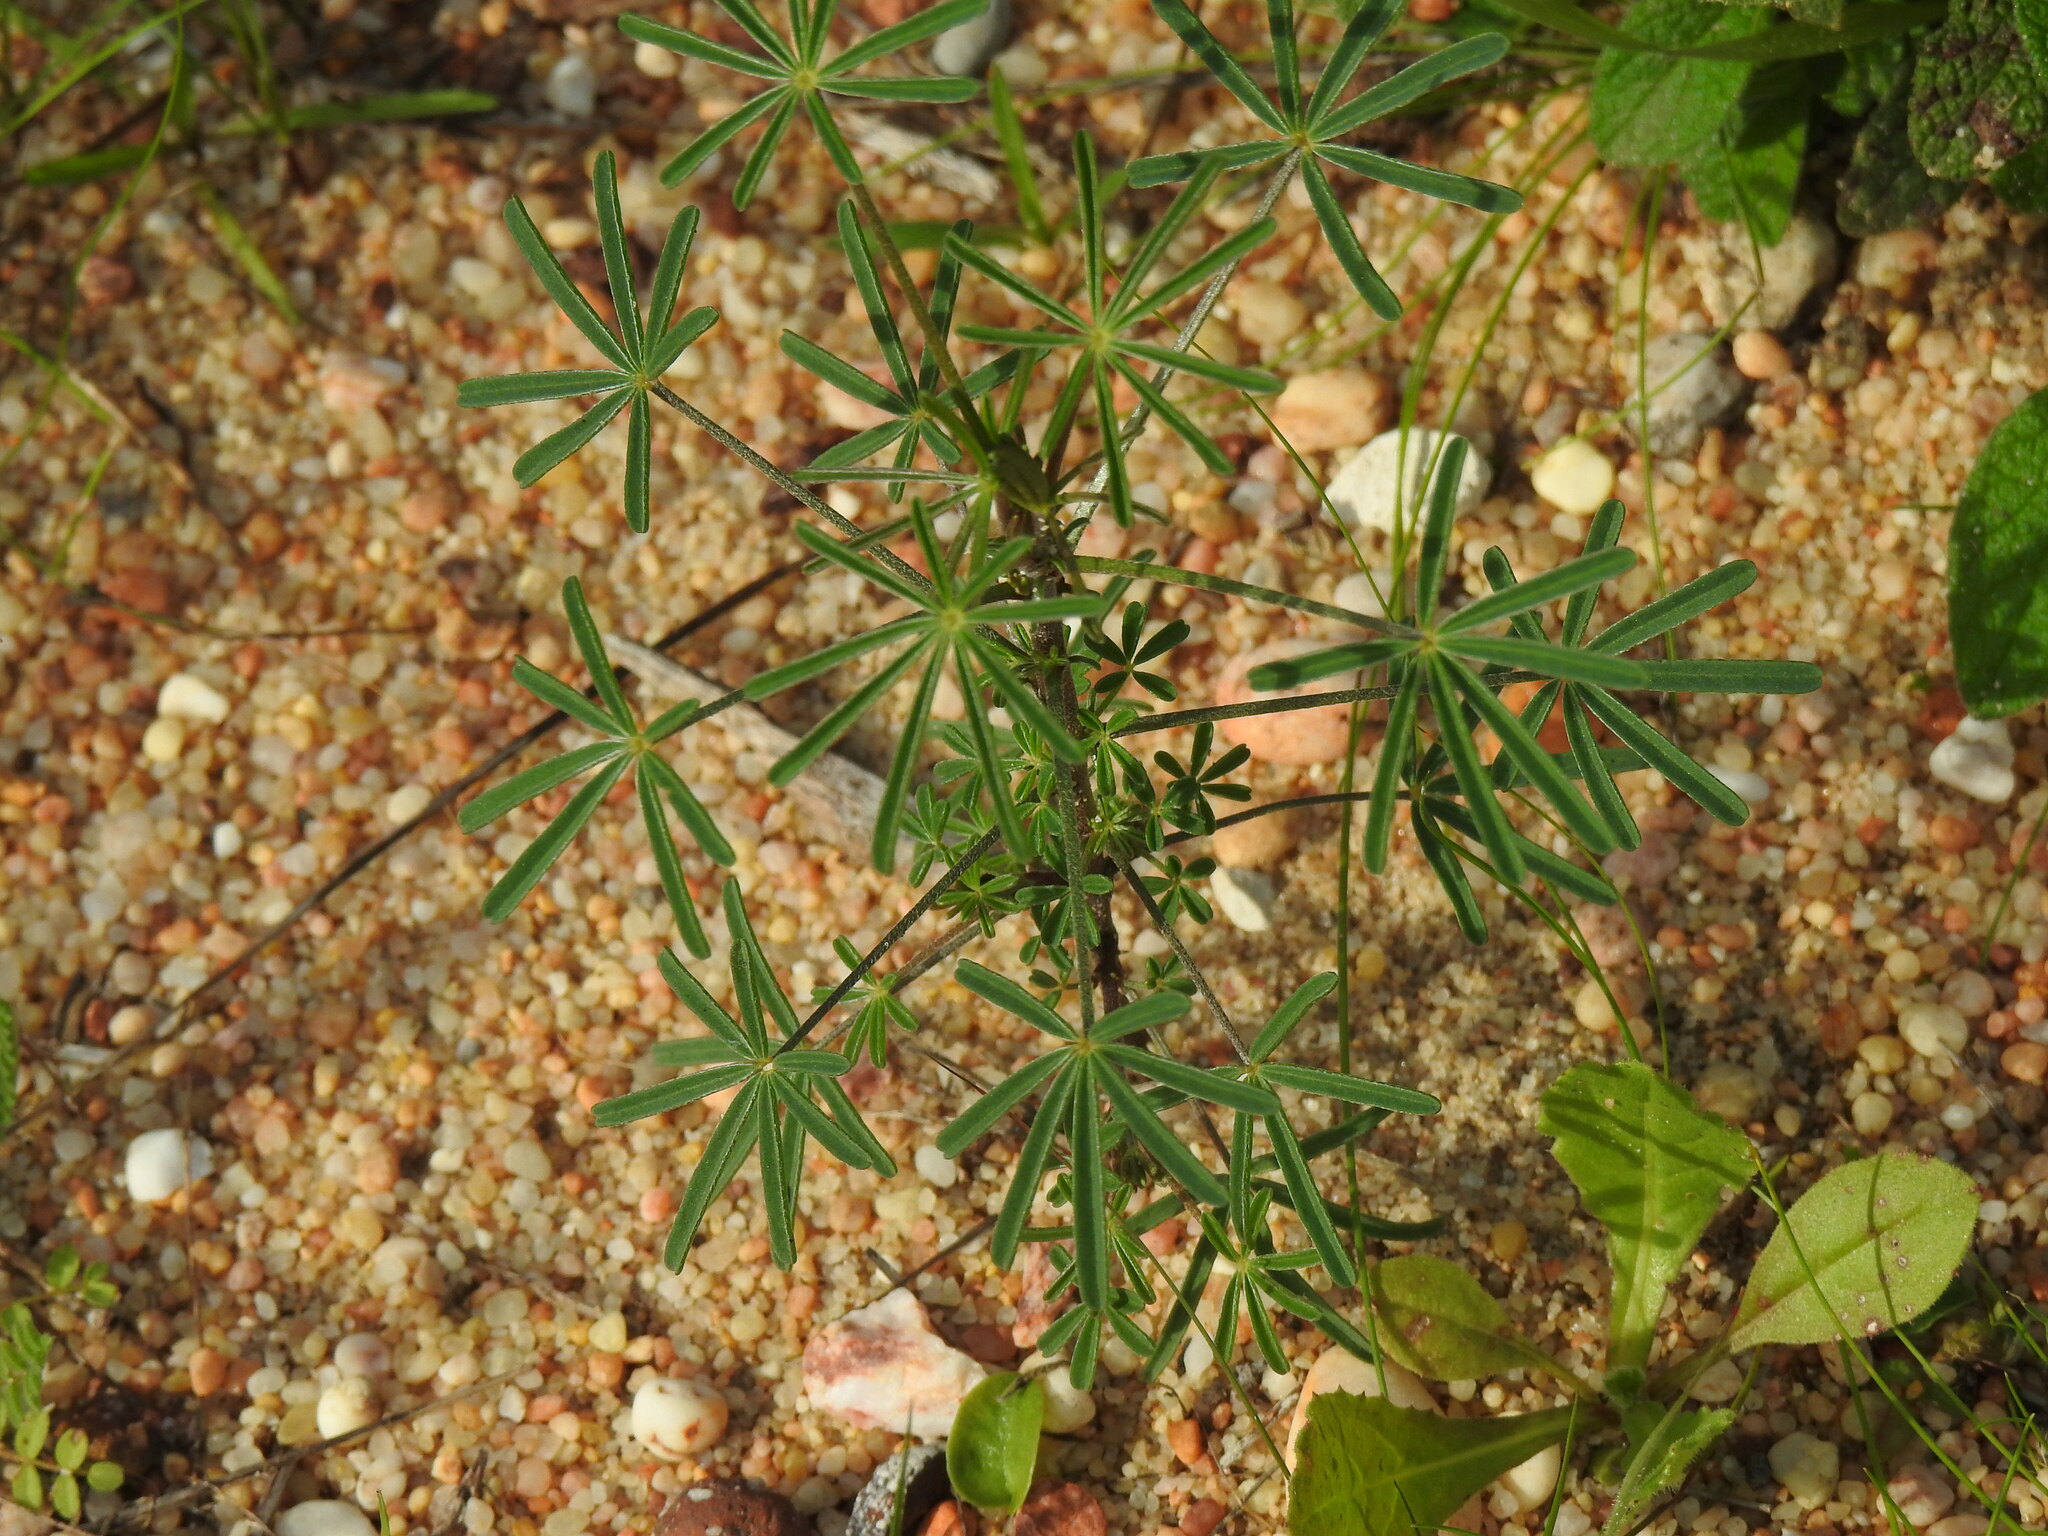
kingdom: Plantae
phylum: Tracheophyta
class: Magnoliopsida
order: Fabales
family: Fabaceae
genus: Lupinus
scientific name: Lupinus angustifolius
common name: Narrow-leaved lupin
